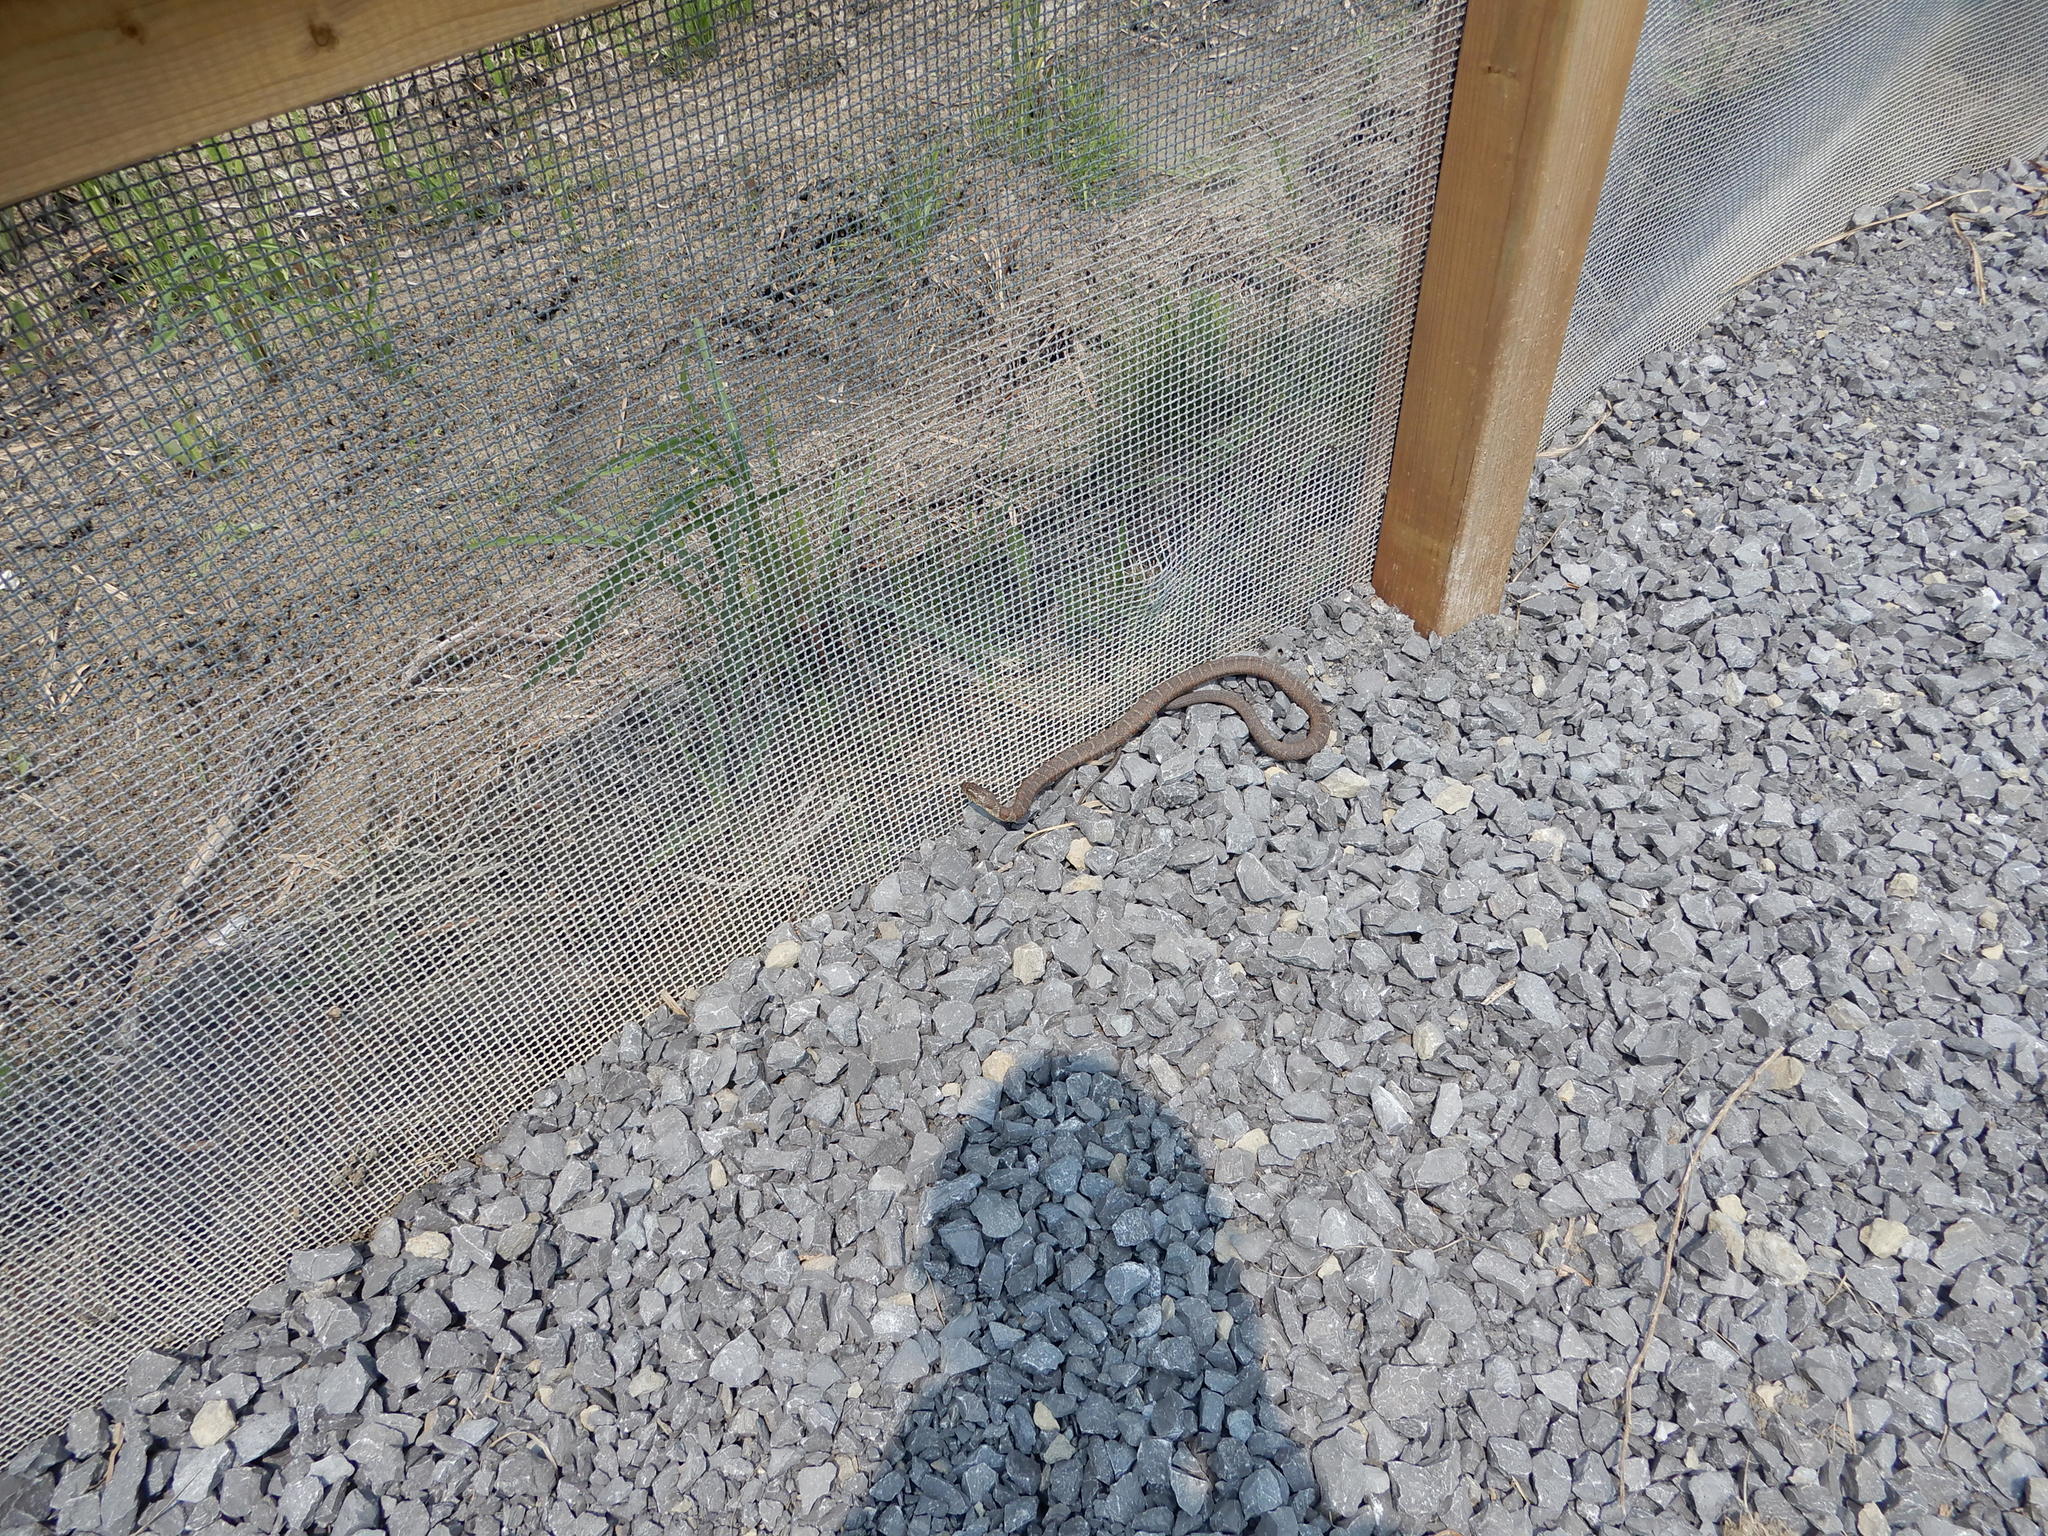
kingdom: Animalia
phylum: Chordata
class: Squamata
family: Colubridae
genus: Nerodia
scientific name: Nerodia sipedon
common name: Northern water snake
